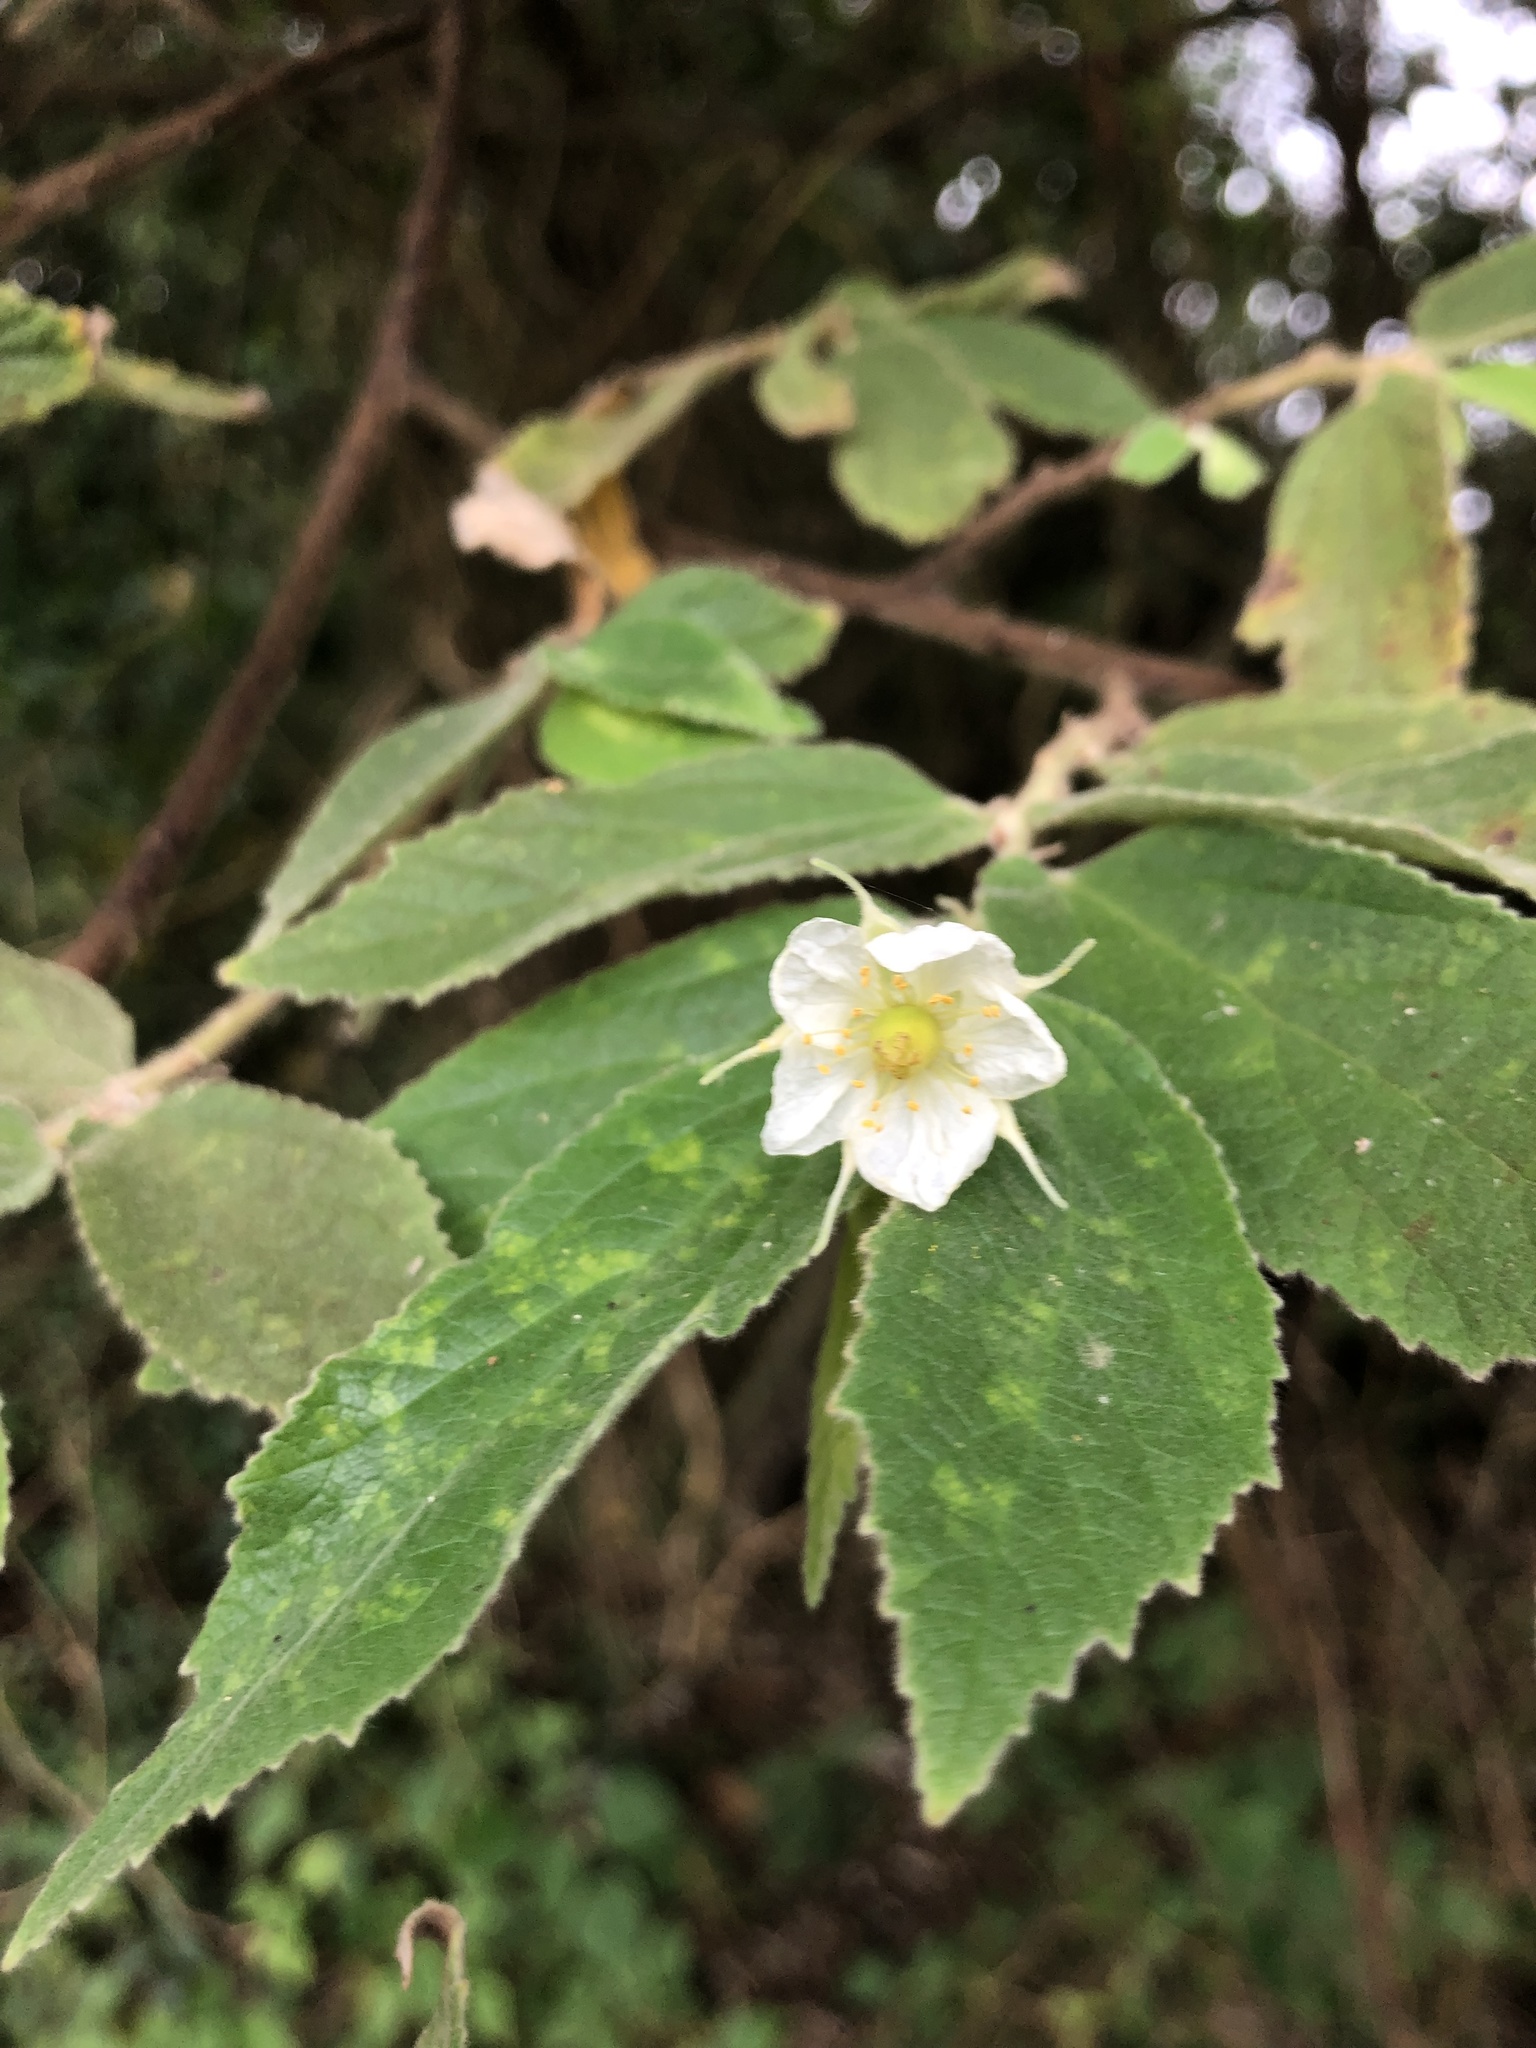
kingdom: Plantae
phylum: Tracheophyta
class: Magnoliopsida
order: Malvales
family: Muntingiaceae
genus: Muntingia
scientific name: Muntingia calabura
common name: Strawberrytree
